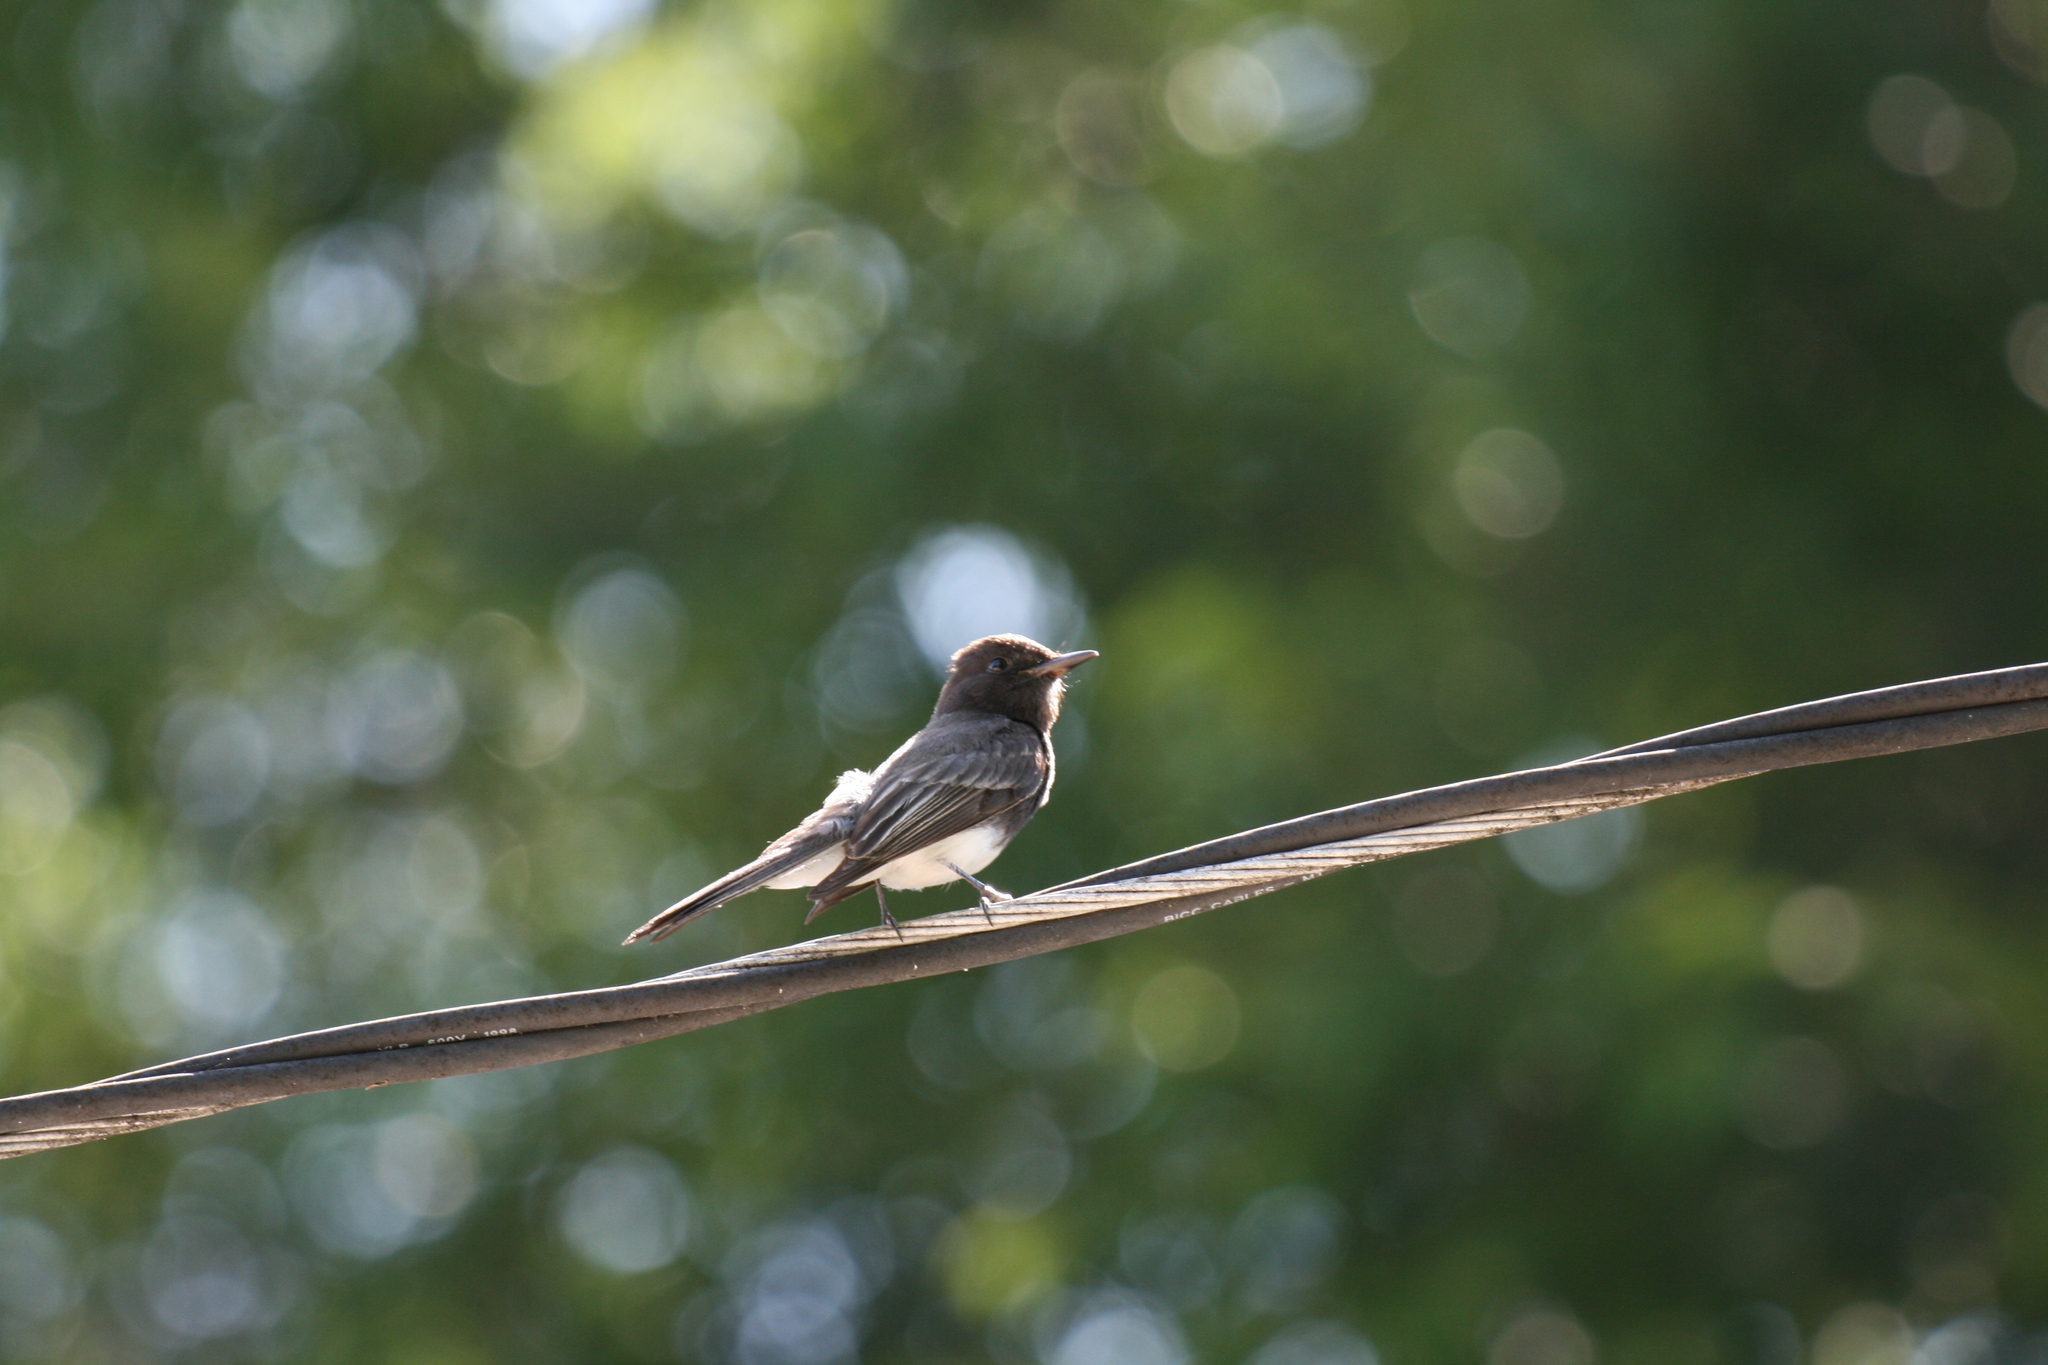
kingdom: Animalia
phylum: Chordata
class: Aves
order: Passeriformes
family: Tyrannidae
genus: Sayornis
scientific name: Sayornis nigricans
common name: Black phoebe
